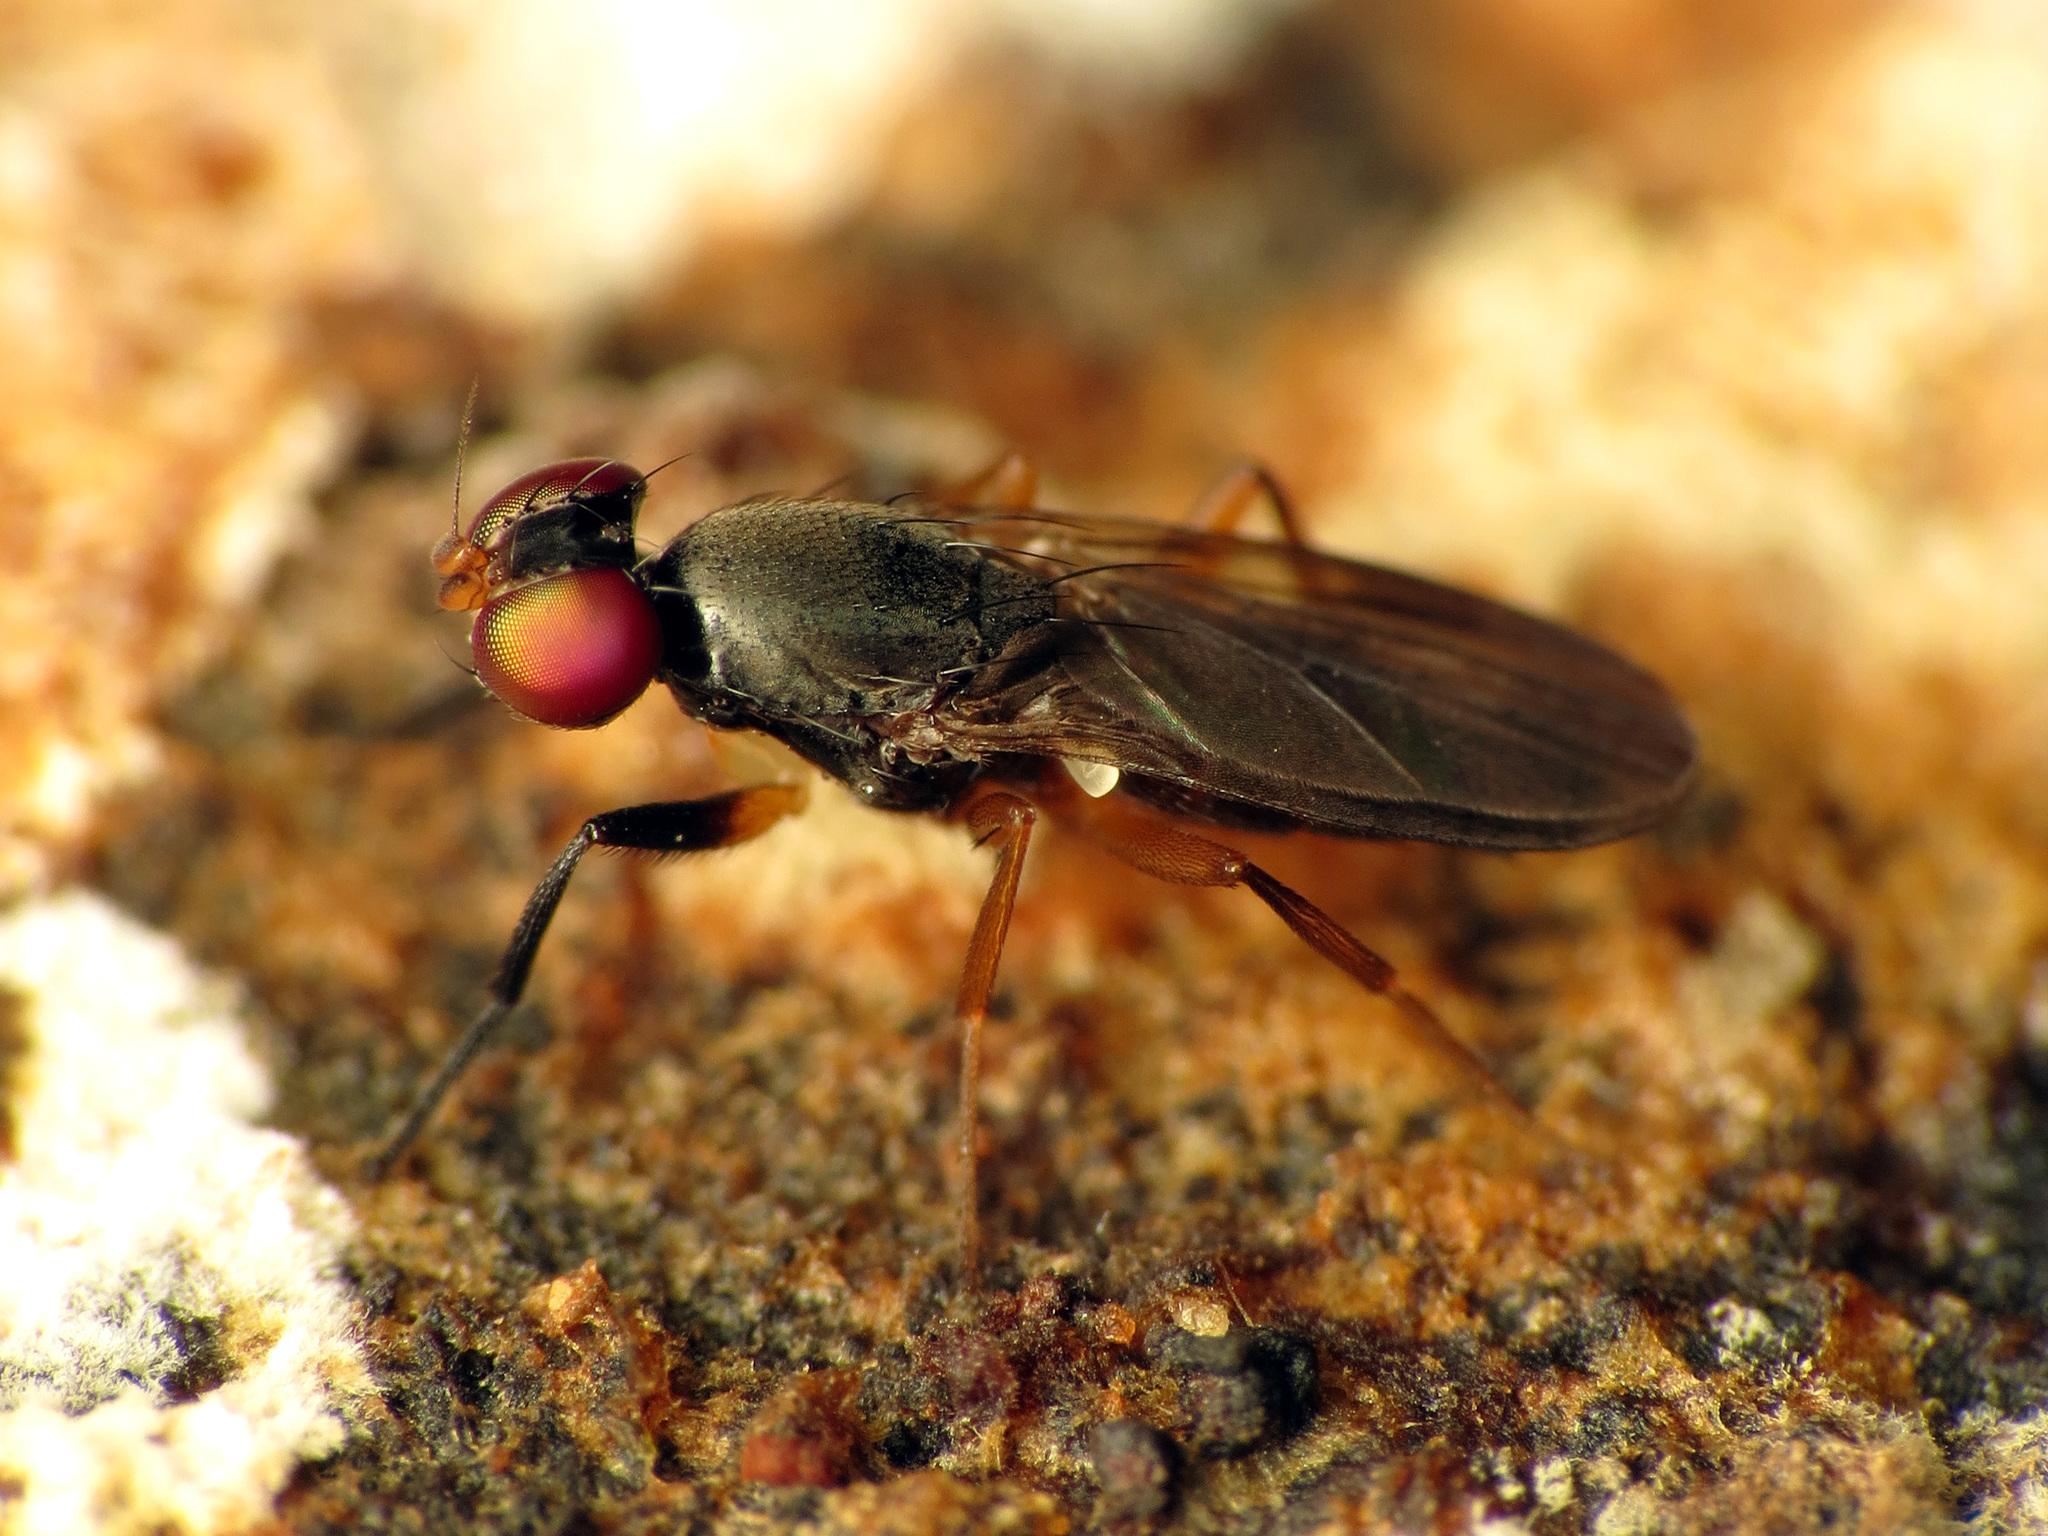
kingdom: Animalia
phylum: Arthropoda
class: Insecta
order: Diptera
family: Clusiidae
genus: Heteromeringia
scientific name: Heteromeringia nitida
